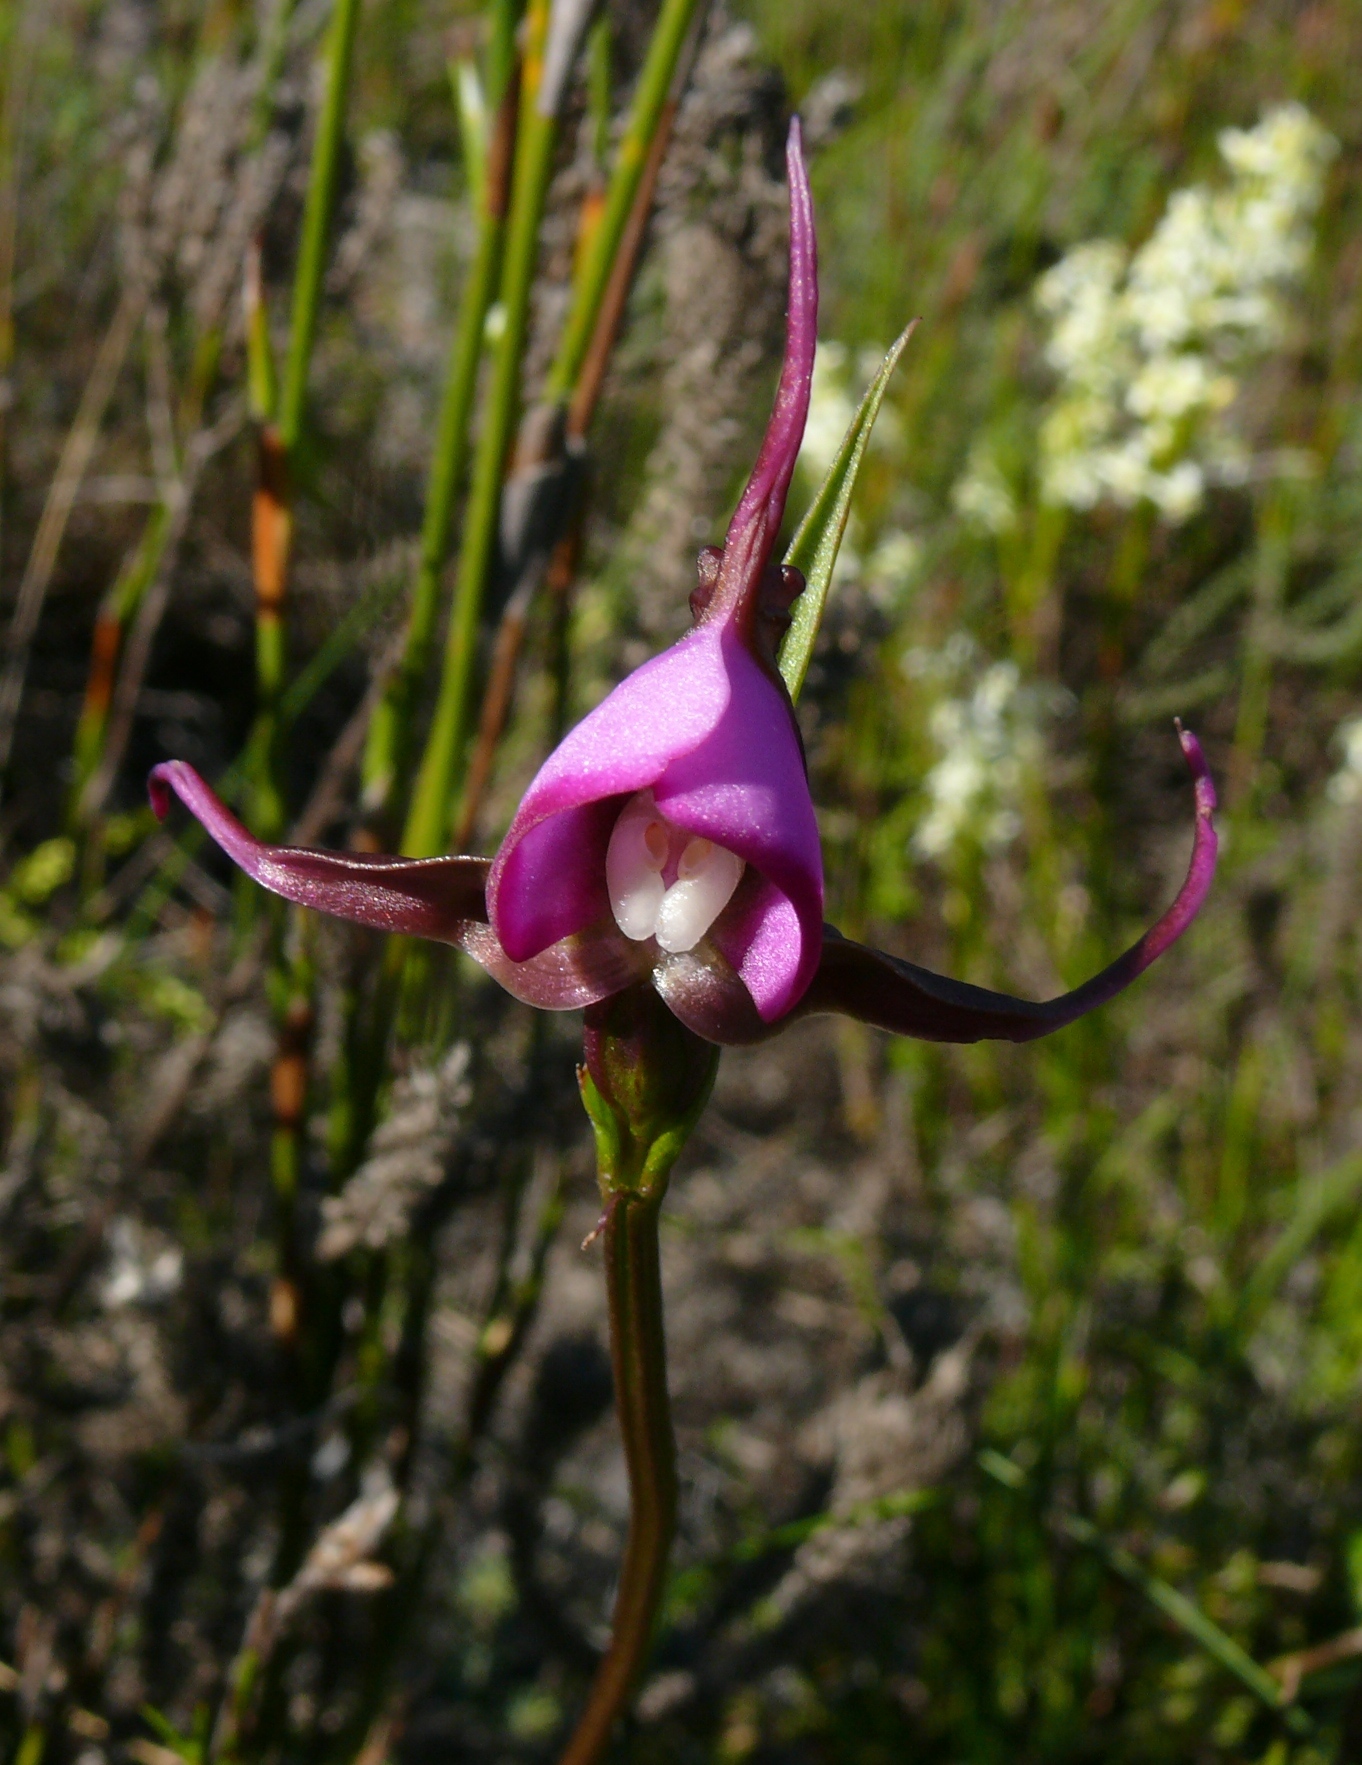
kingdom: Plantae
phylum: Tracheophyta
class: Liliopsida
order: Asparagales
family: Orchidaceae
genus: Disperis
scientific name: Disperis capensis
